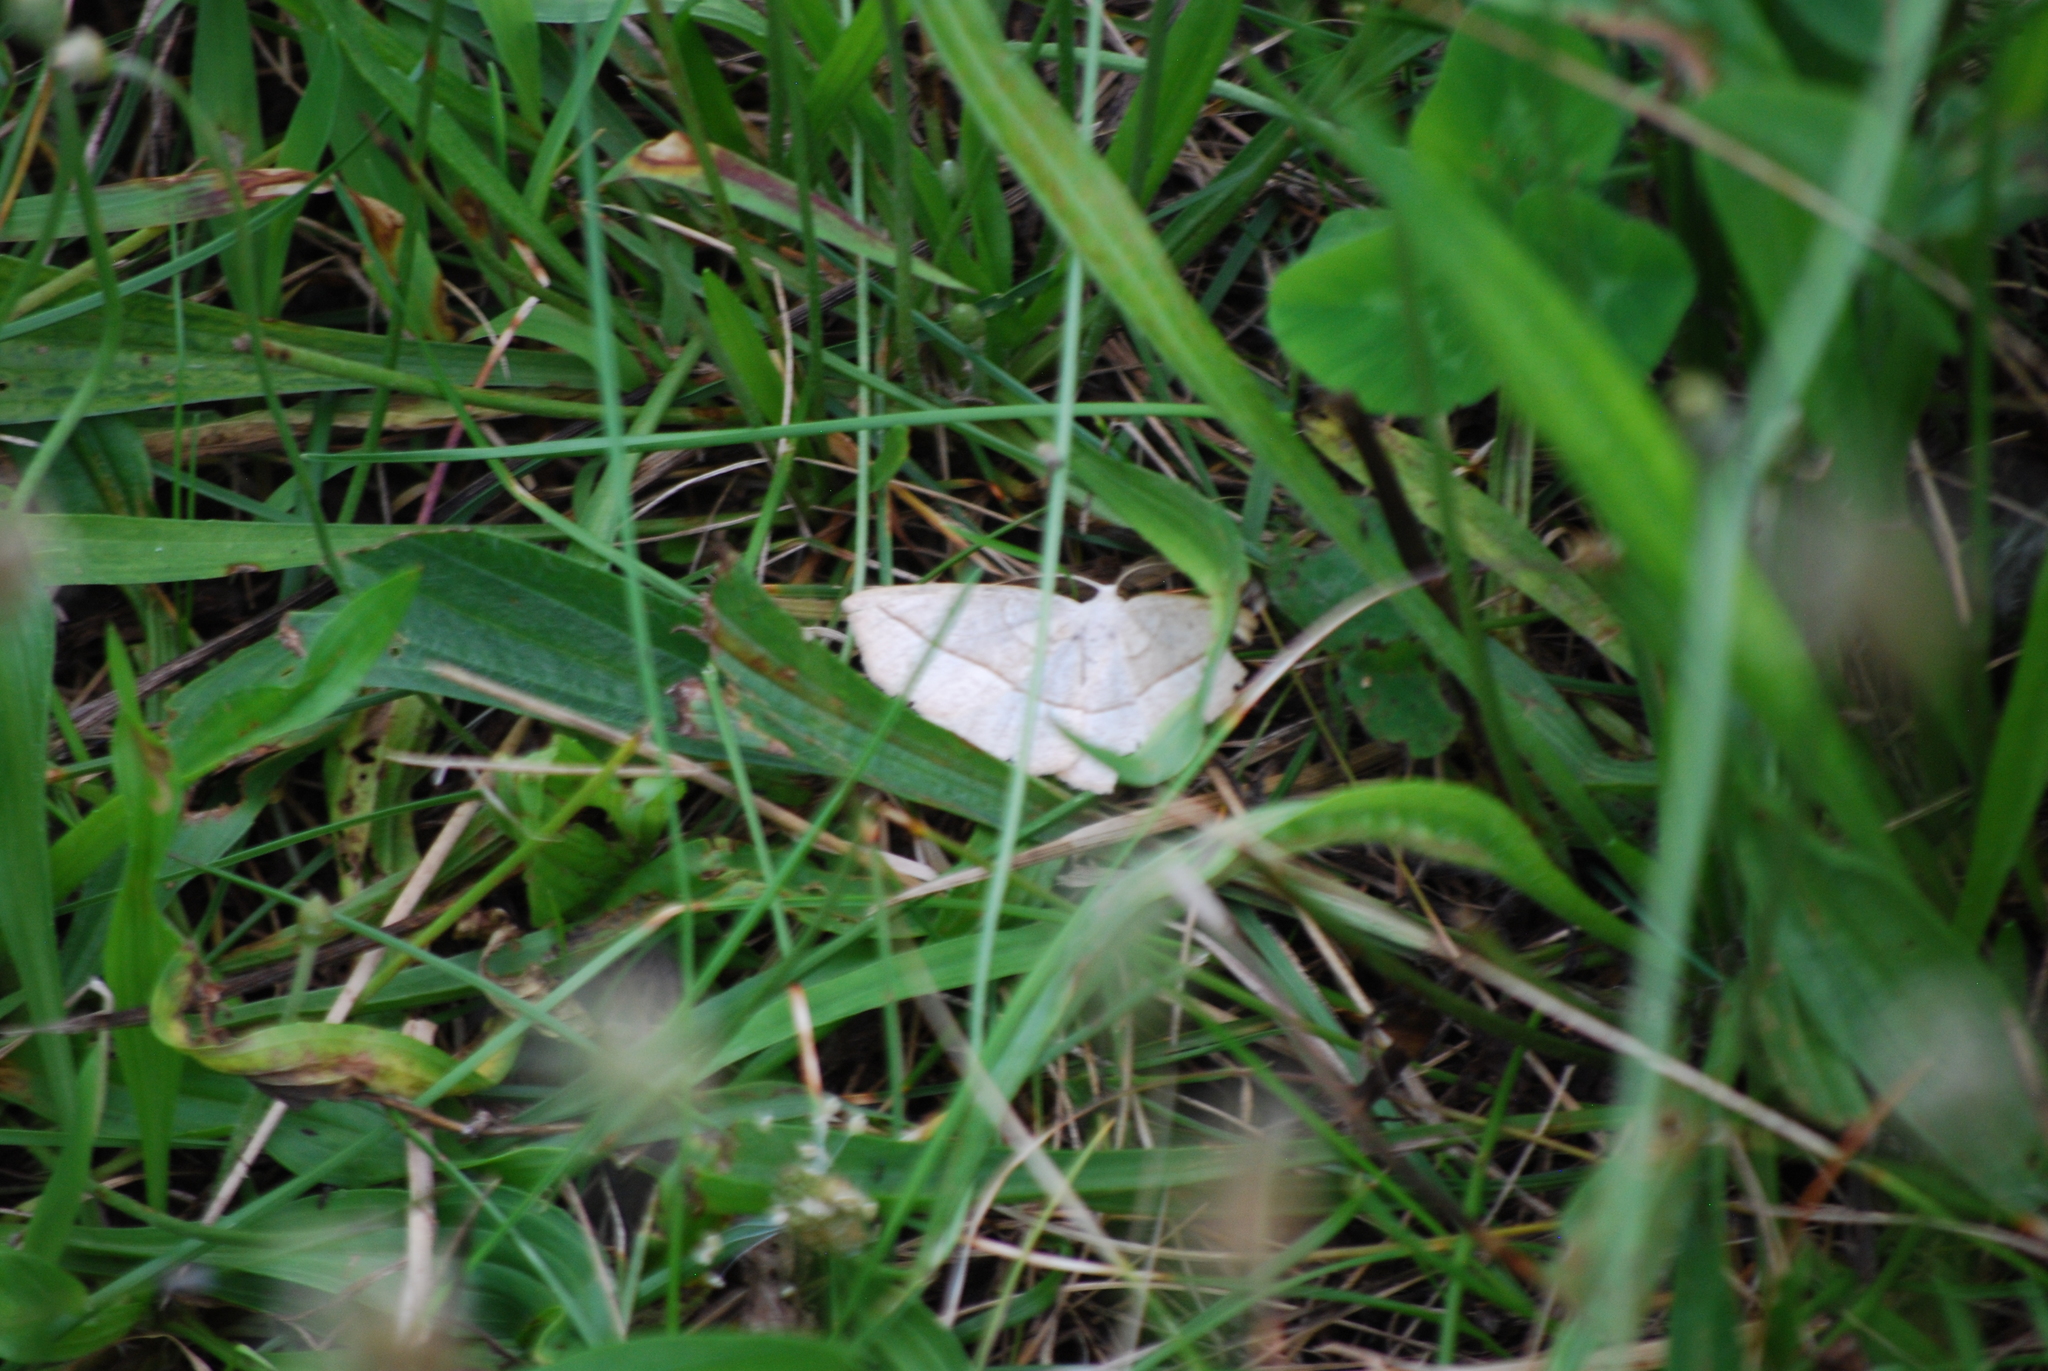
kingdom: Animalia
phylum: Arthropoda
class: Insecta
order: Lepidoptera
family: Geometridae
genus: Eusarca
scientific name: Eusarca confusaria
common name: Confused eusarca
